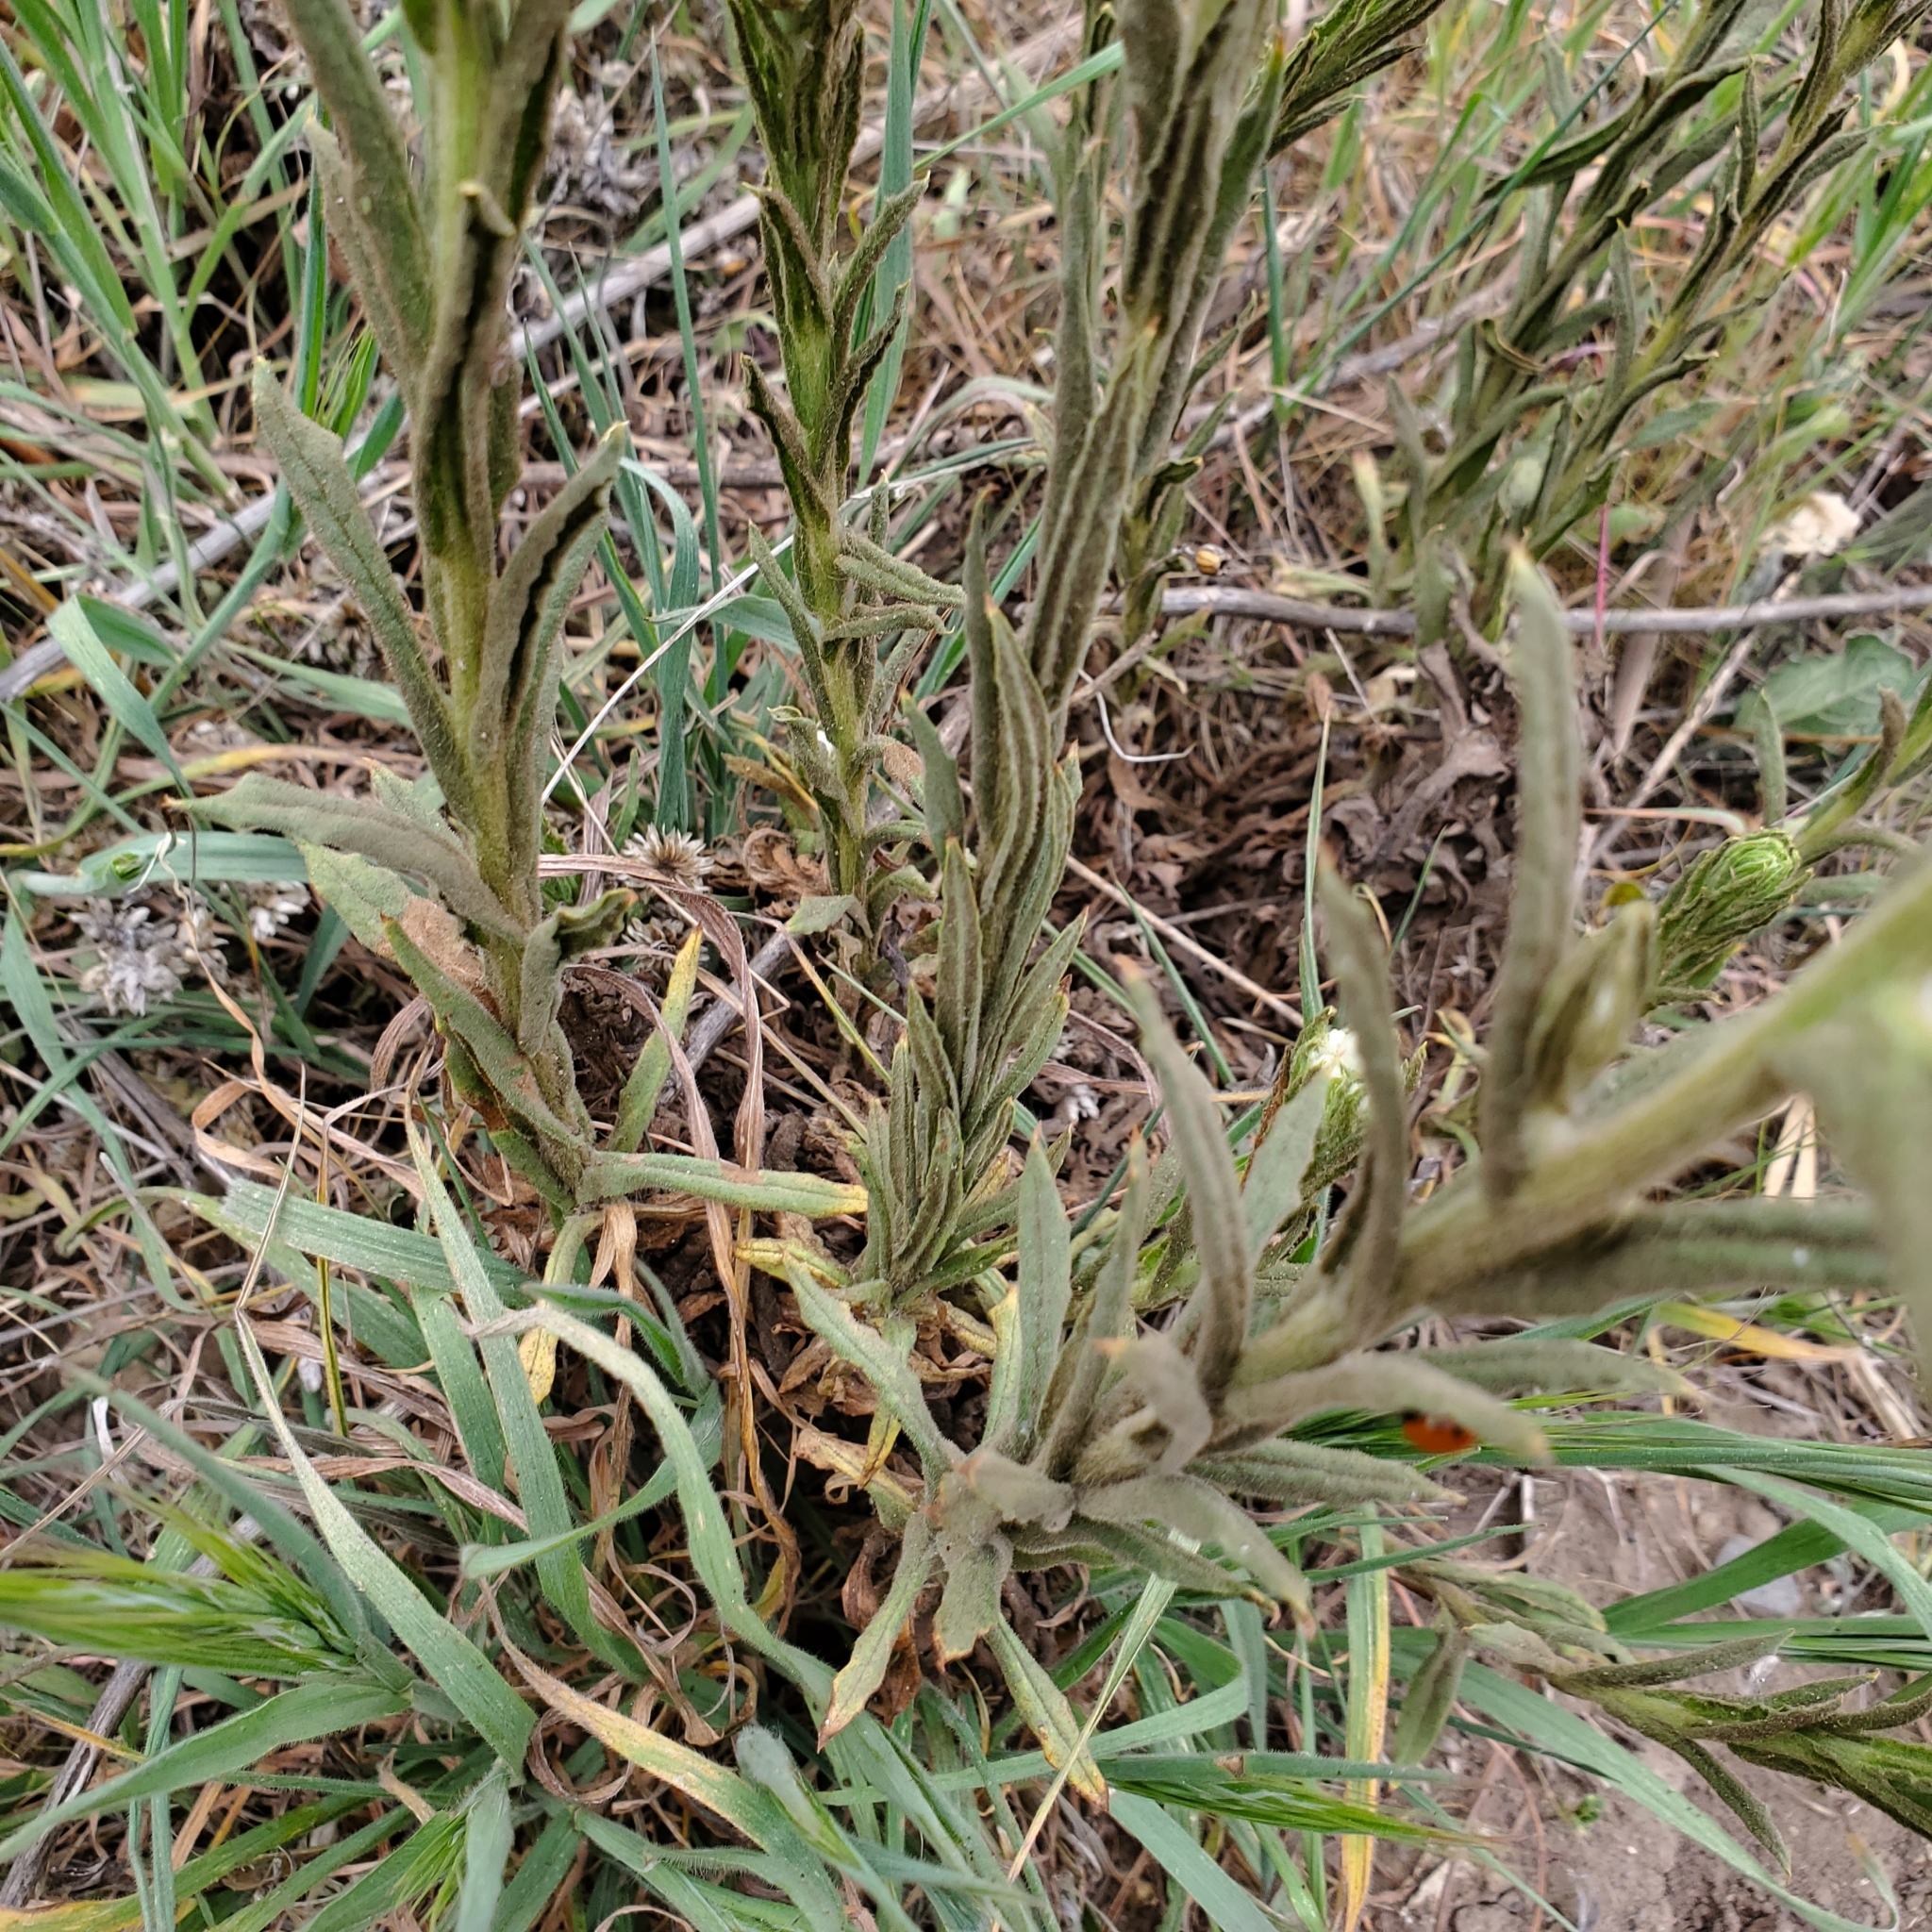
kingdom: Plantae
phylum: Tracheophyta
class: Magnoliopsida
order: Asterales
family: Asteraceae
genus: Pseudognaphalium
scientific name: Pseudognaphalium californicum
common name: California rabbit-tobacco
